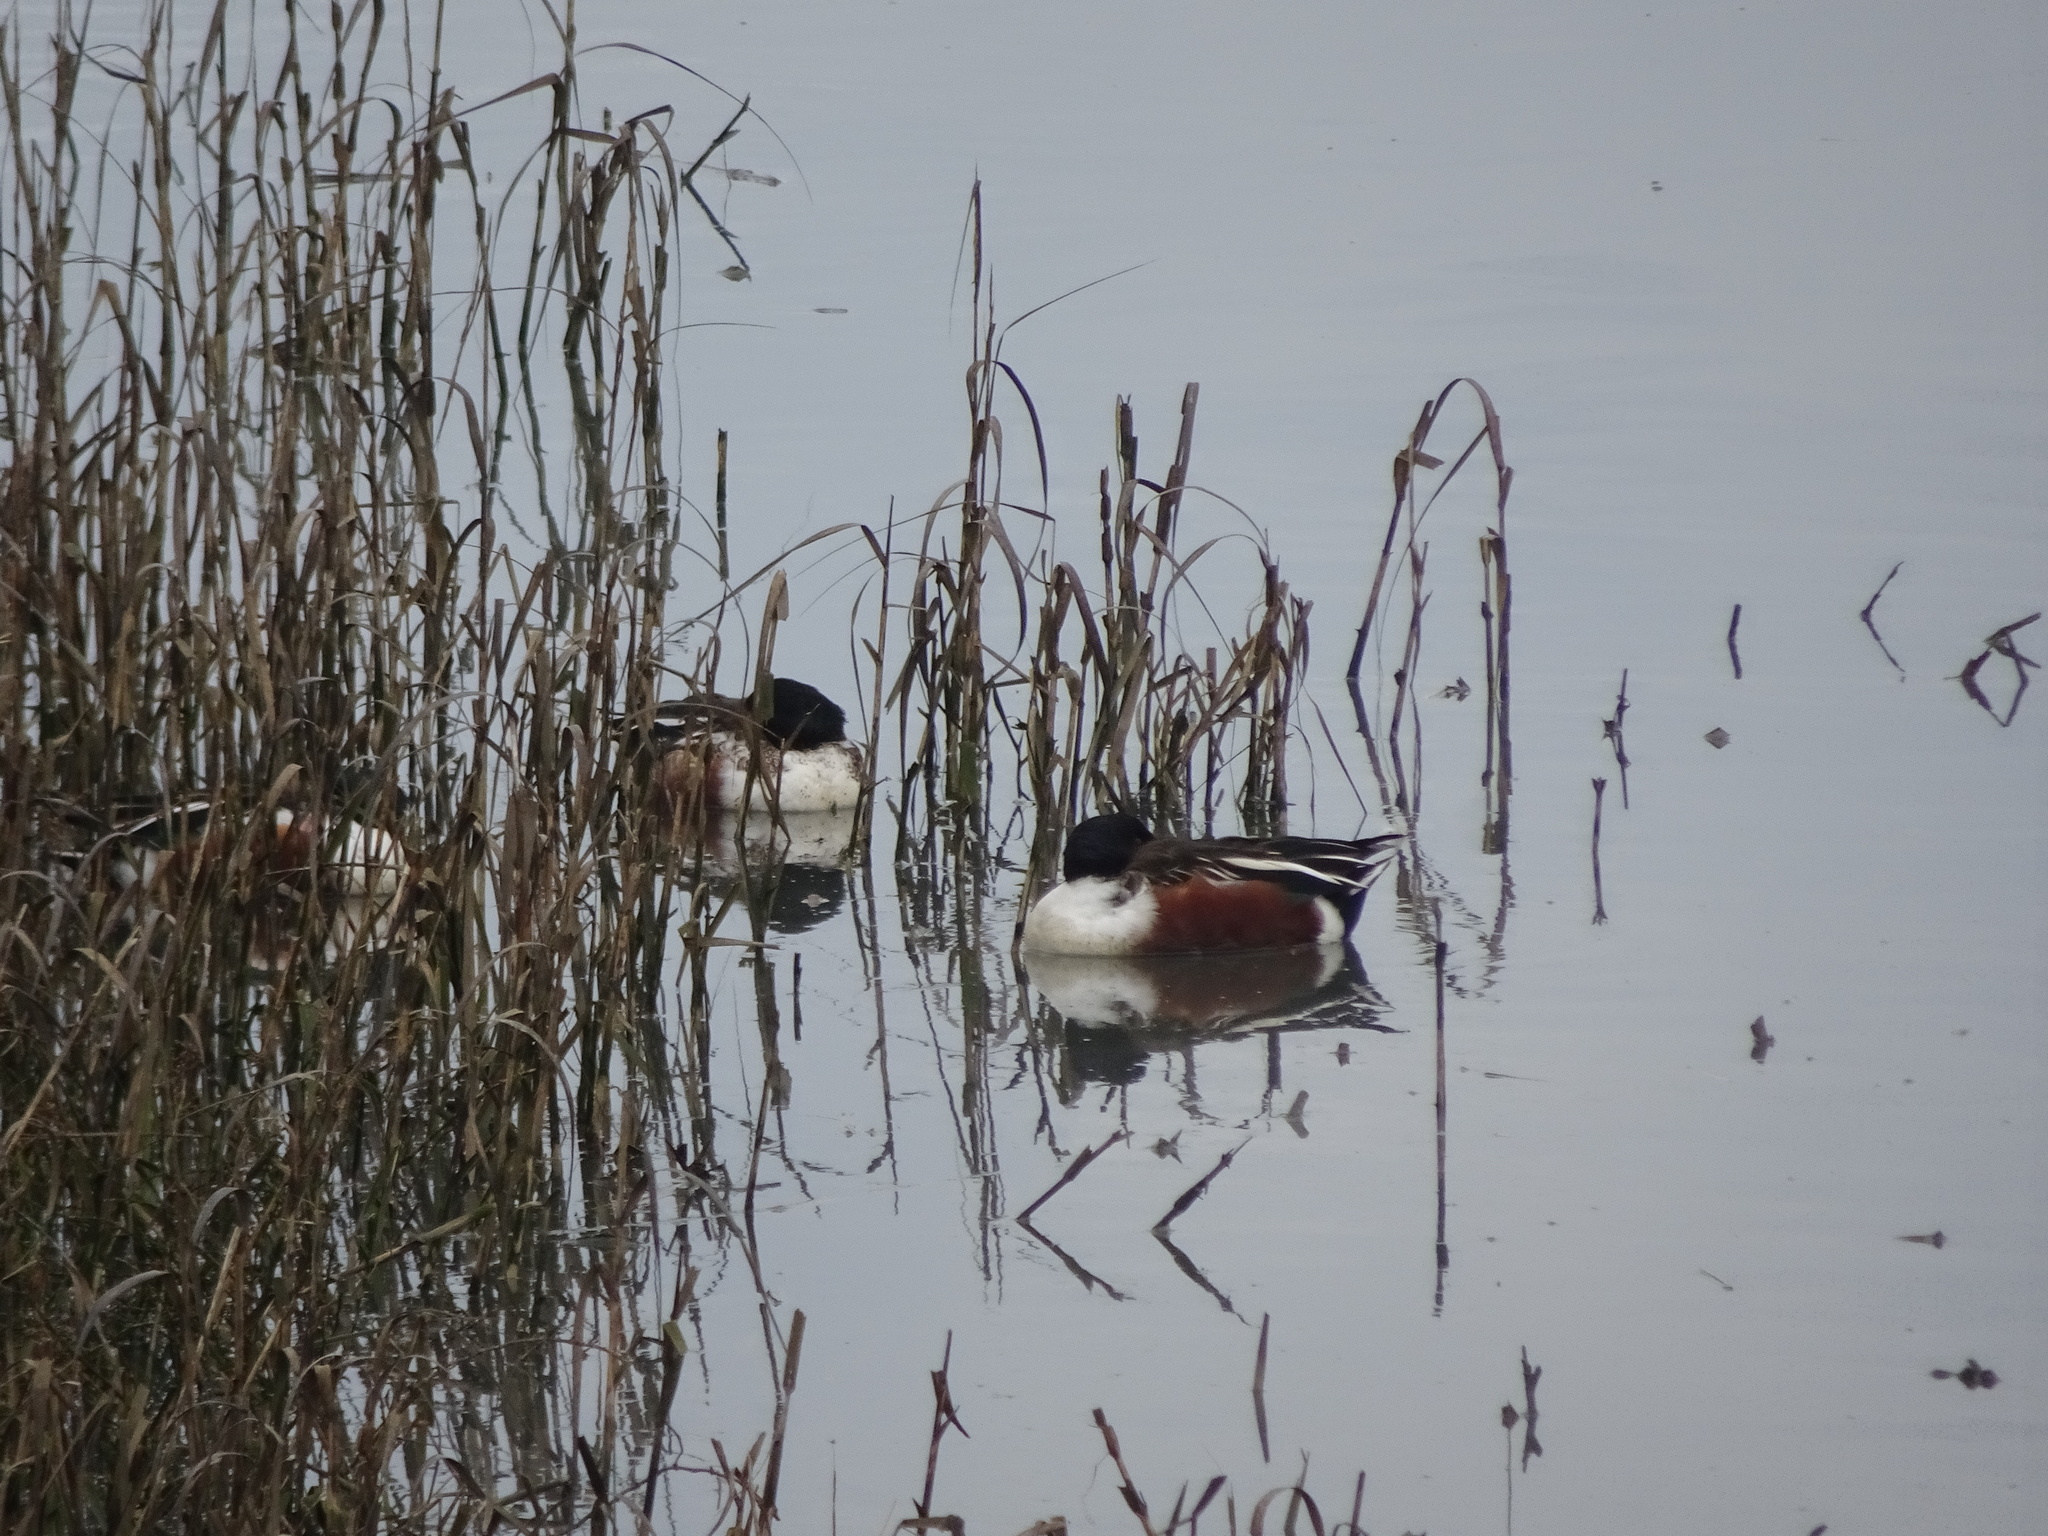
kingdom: Animalia
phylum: Chordata
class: Aves
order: Anseriformes
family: Anatidae
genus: Spatula
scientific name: Spatula clypeata
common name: Northern shoveler
